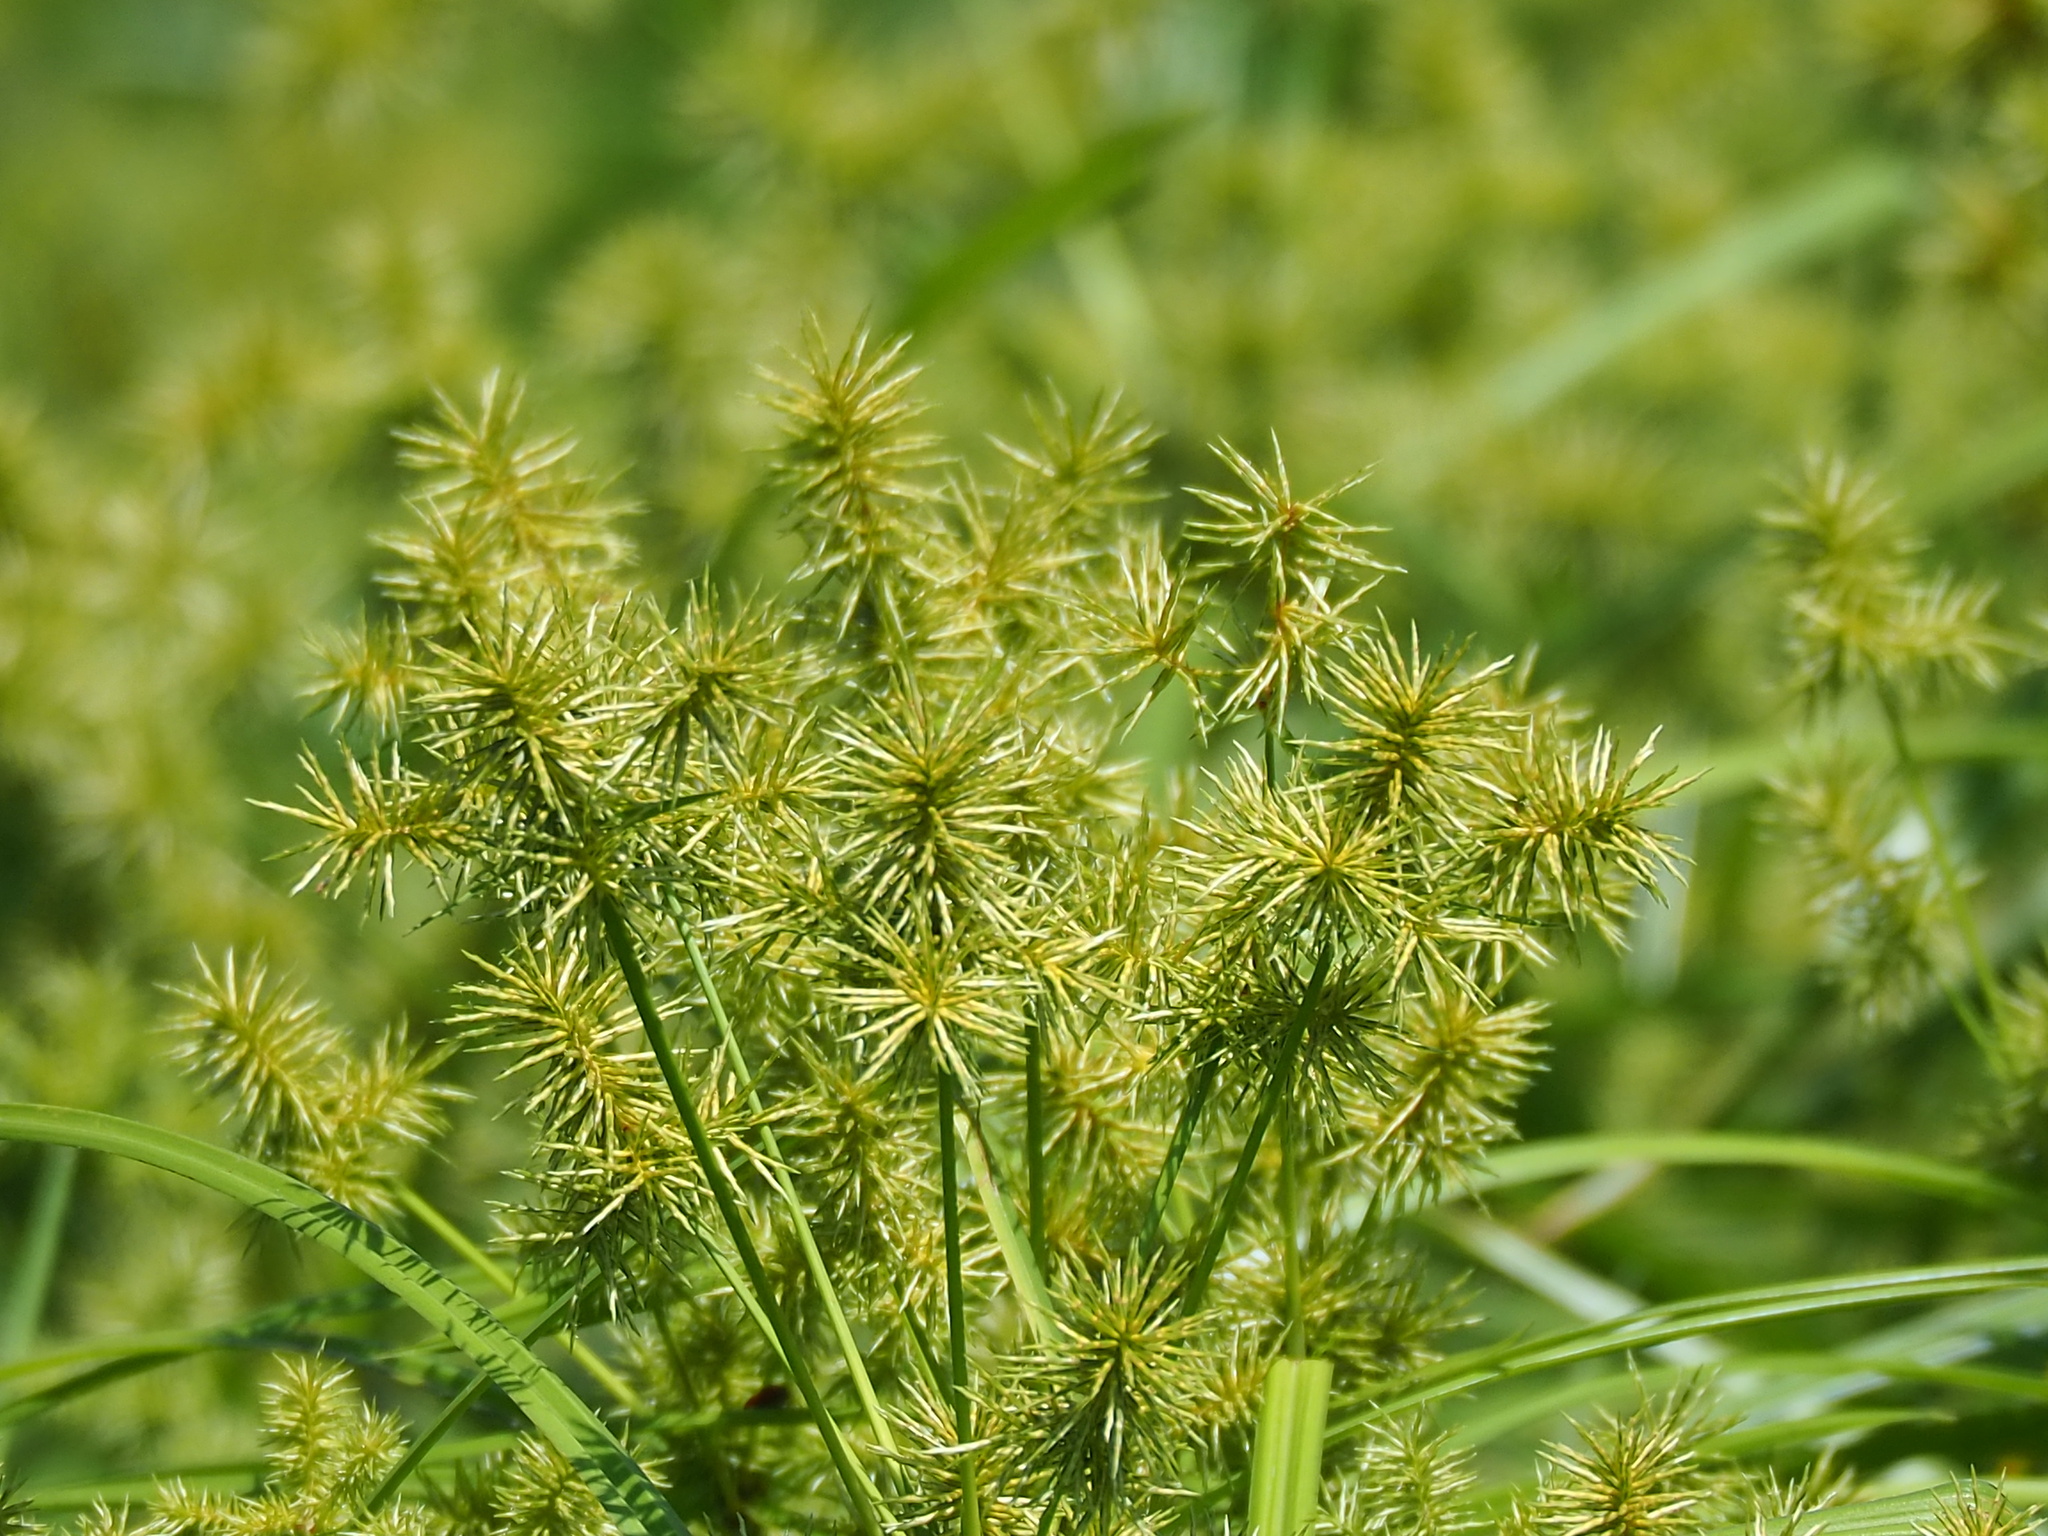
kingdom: Plantae
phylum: Tracheophyta
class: Liliopsida
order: Poales
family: Cyperaceae
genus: Cyperus
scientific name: Cyperus odoratus
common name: Fragrant flatsedge
